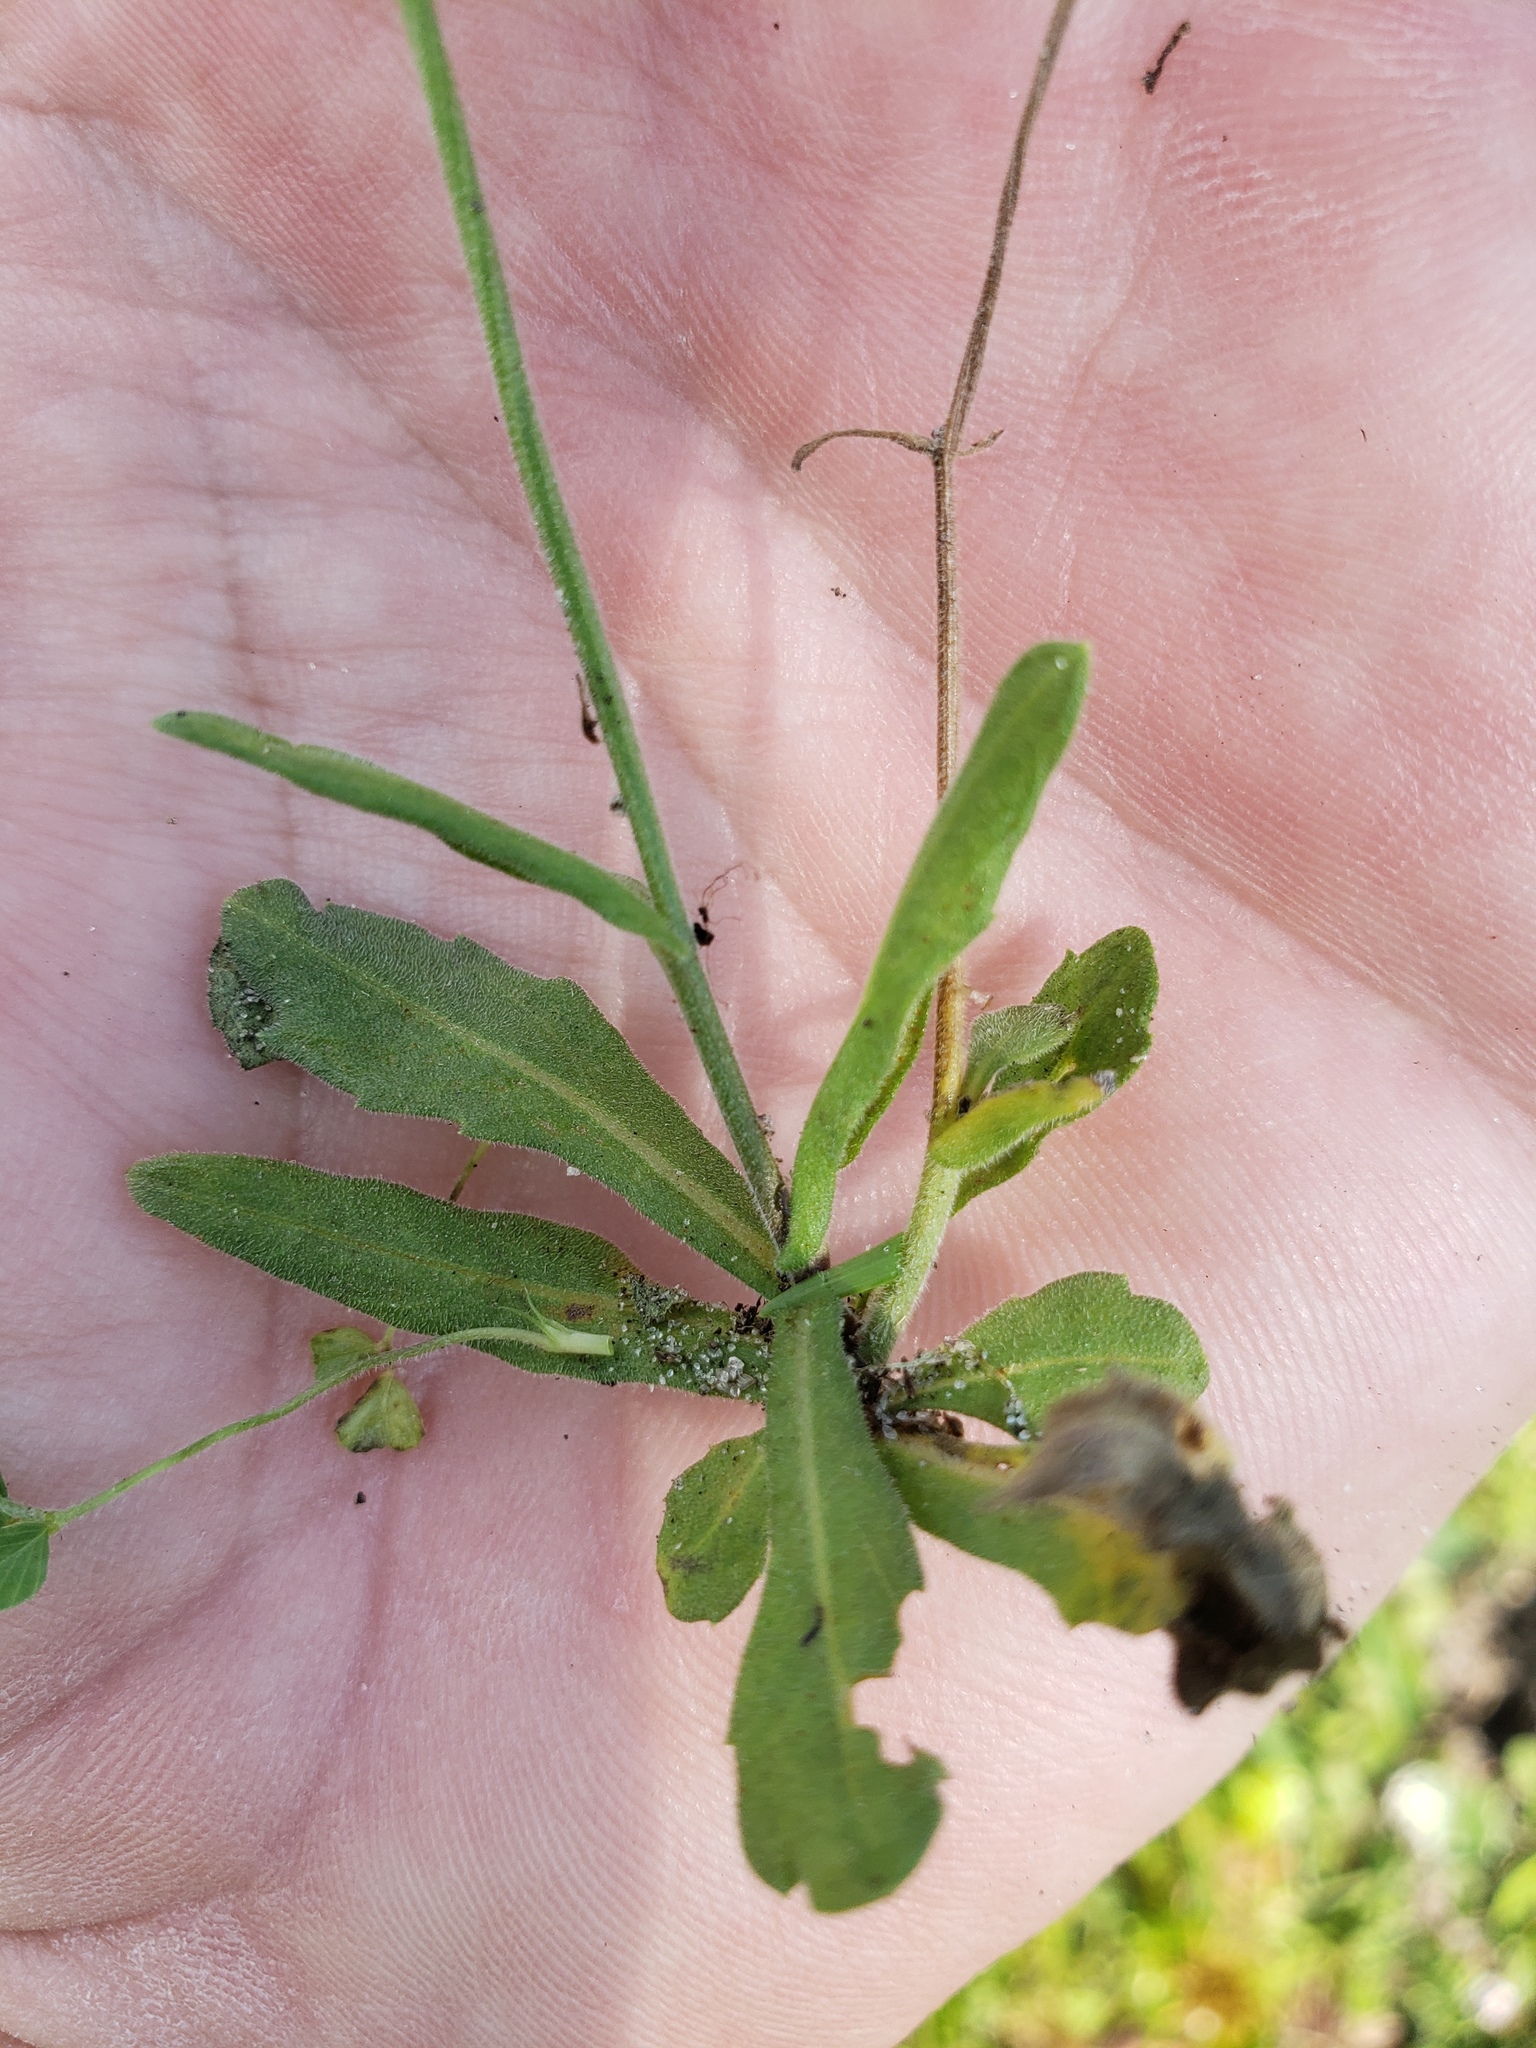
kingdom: Plantae
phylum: Tracheophyta
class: Magnoliopsida
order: Asterales
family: Asteraceae
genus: Erigeron
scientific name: Erigeron quercifolius
